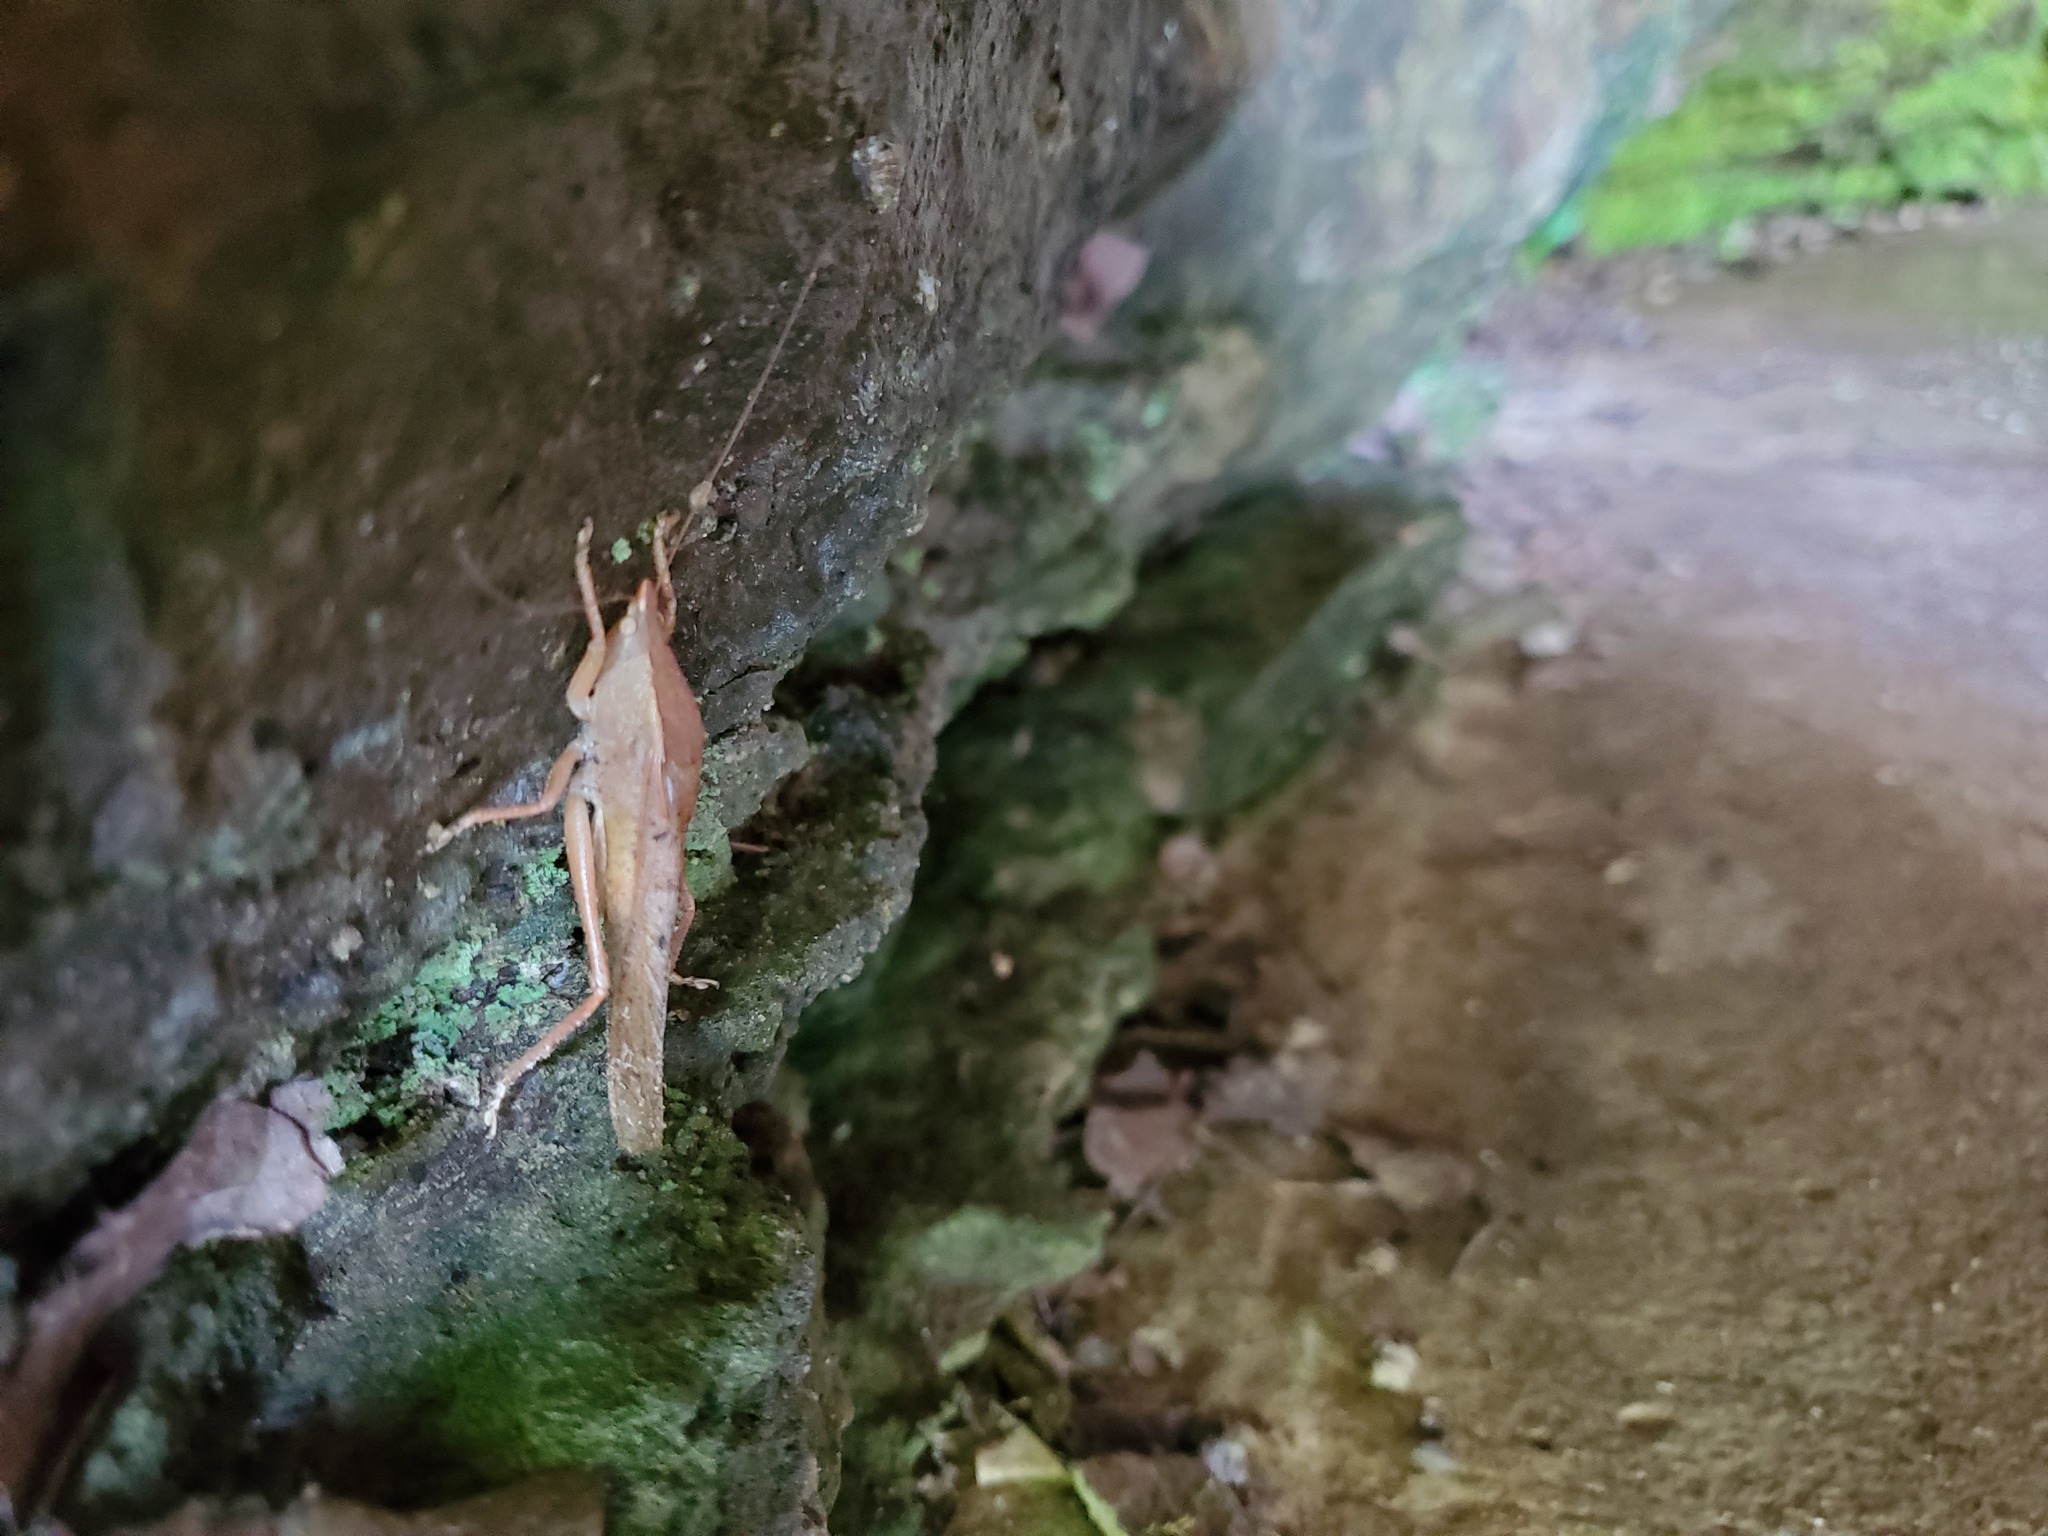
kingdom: Animalia
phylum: Arthropoda
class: Insecta
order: Orthoptera
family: Tettigoniidae
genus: Pyrgocorypha
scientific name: Pyrgocorypha uncinata
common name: Hook-faced conehead
